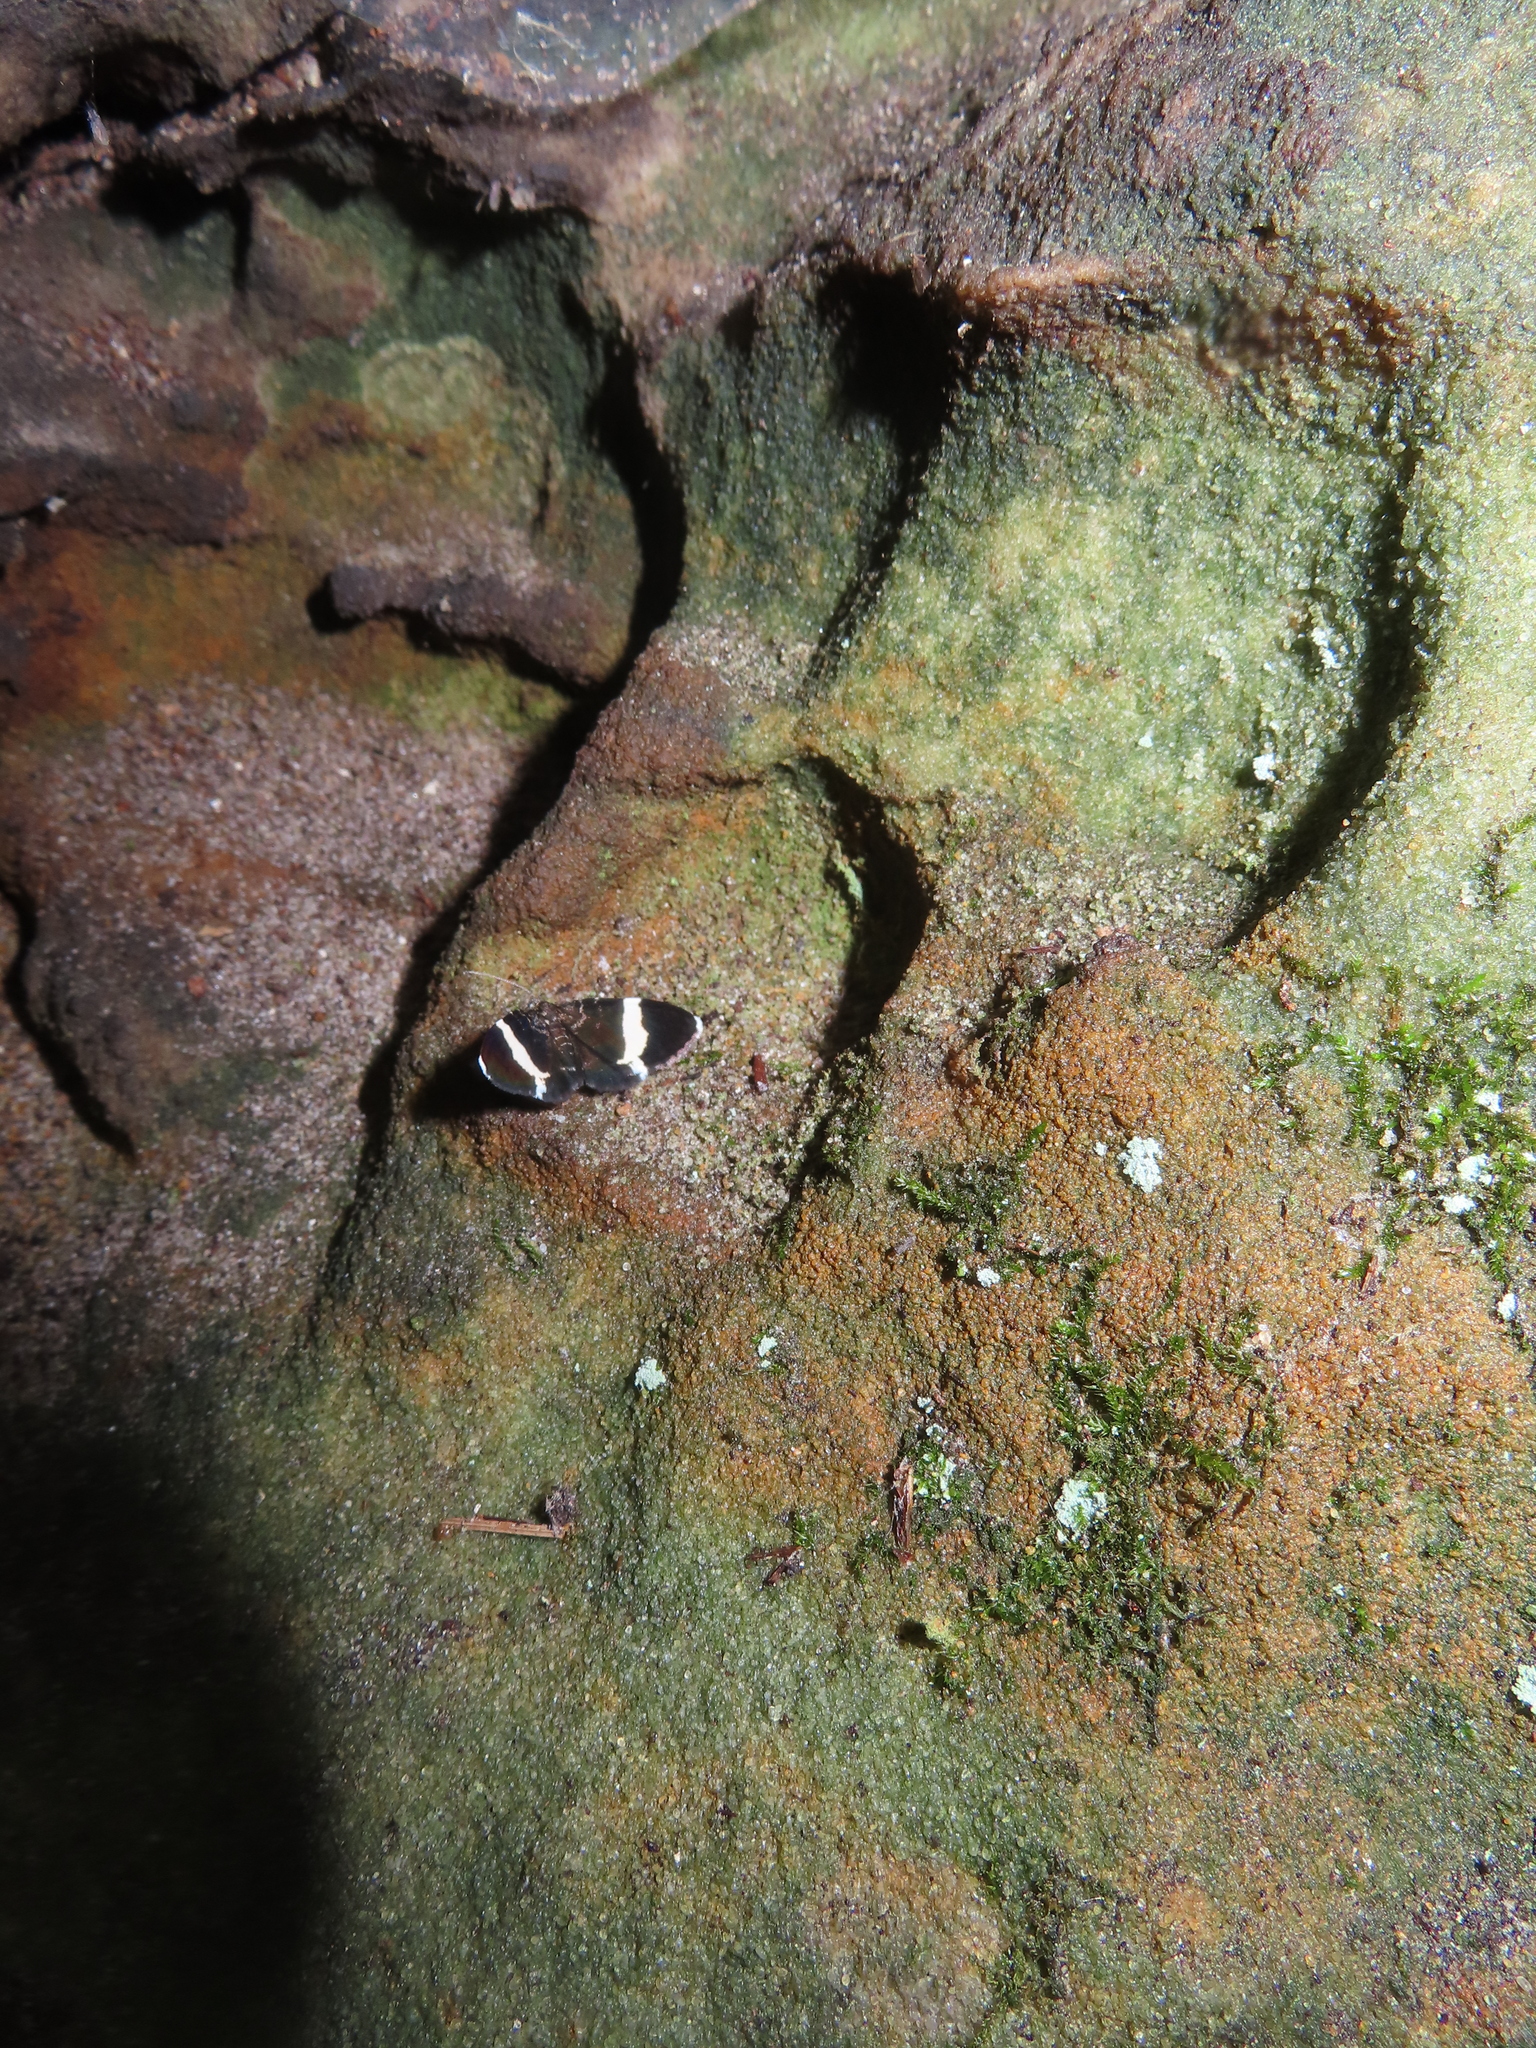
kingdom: Animalia
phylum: Arthropoda
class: Insecta
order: Lepidoptera
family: Geometridae
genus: Trichodezia
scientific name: Trichodezia albovittata
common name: White striped black
